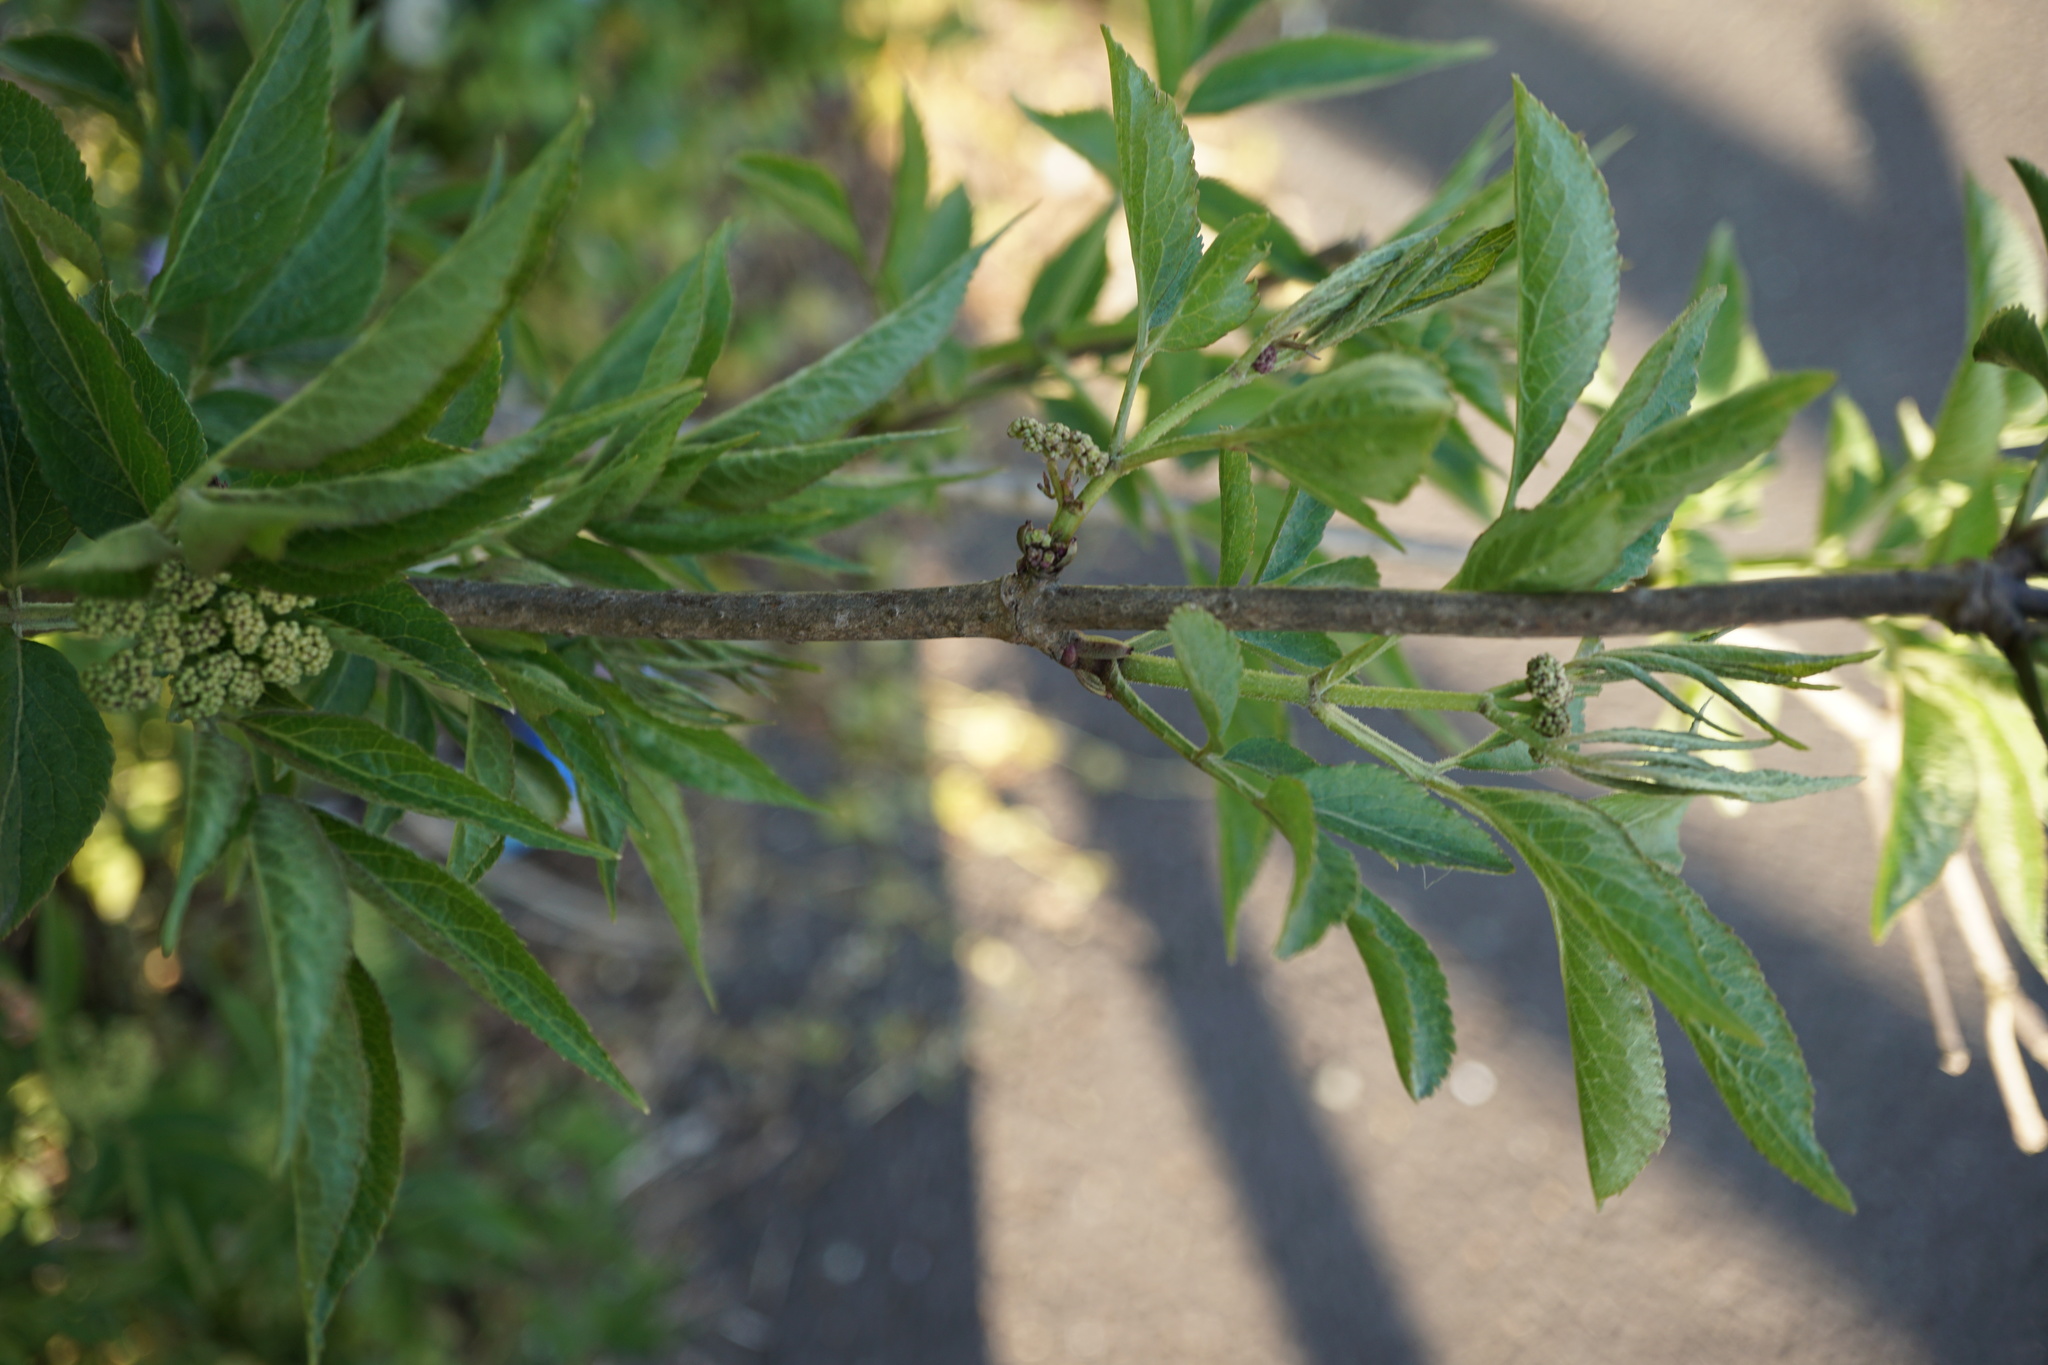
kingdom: Plantae
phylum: Tracheophyta
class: Magnoliopsida
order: Dipsacales
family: Viburnaceae
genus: Sambucus
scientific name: Sambucus nigra
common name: Elder
